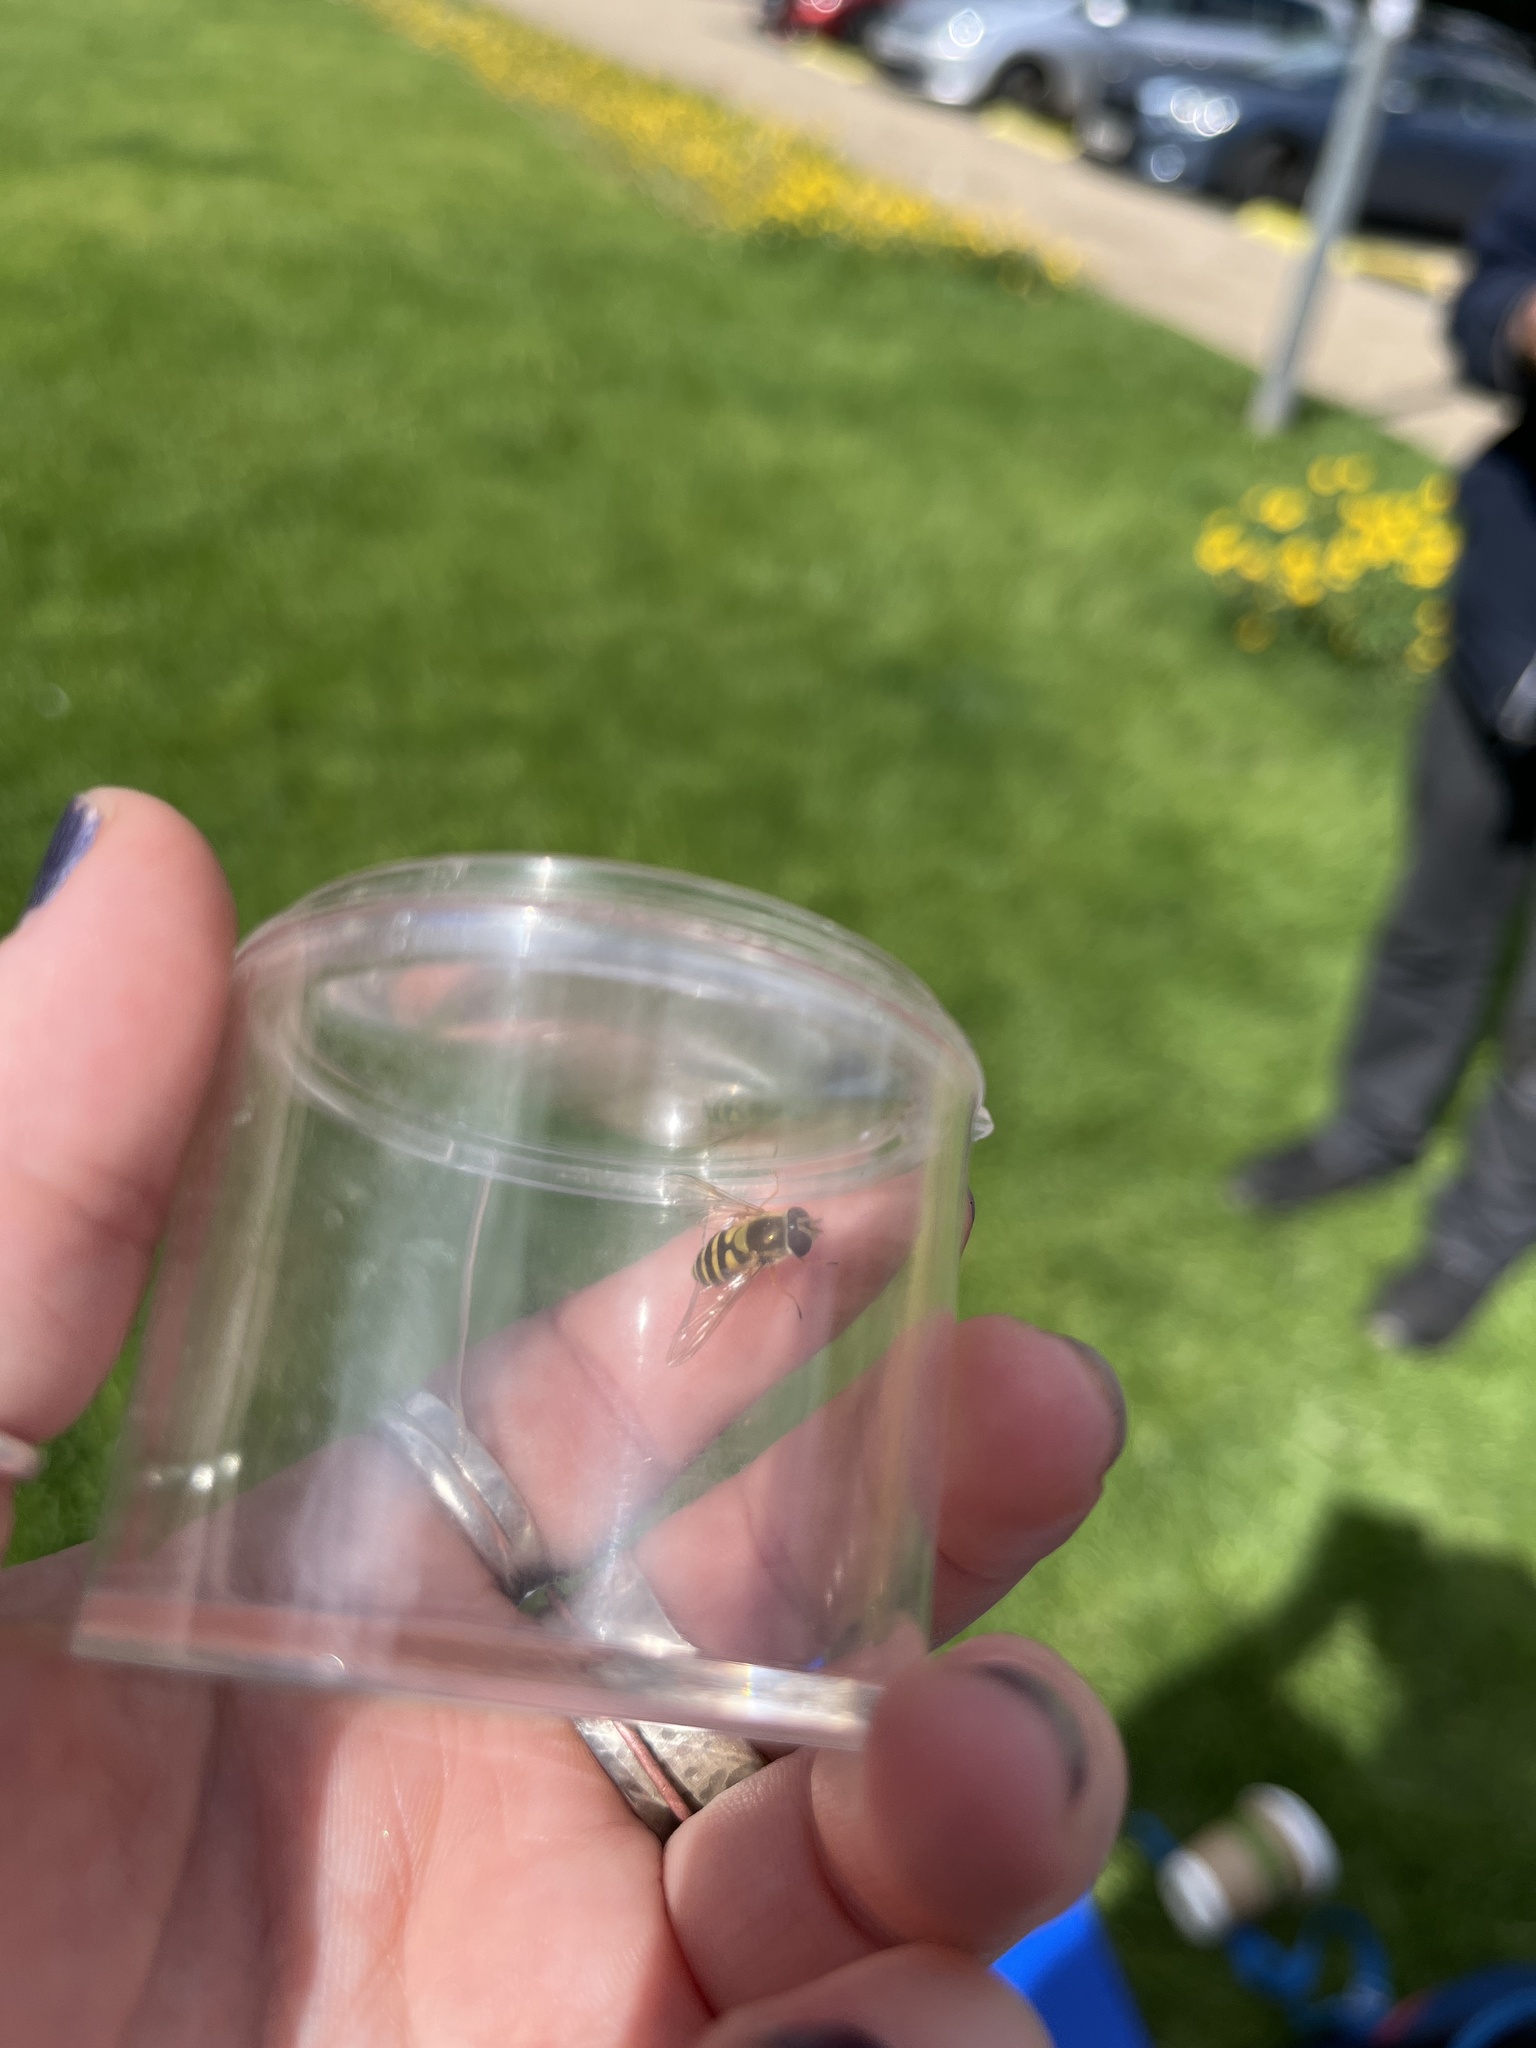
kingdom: Animalia
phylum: Arthropoda
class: Insecta
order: Diptera
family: Syrphidae
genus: Syrphus
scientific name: Syrphus
